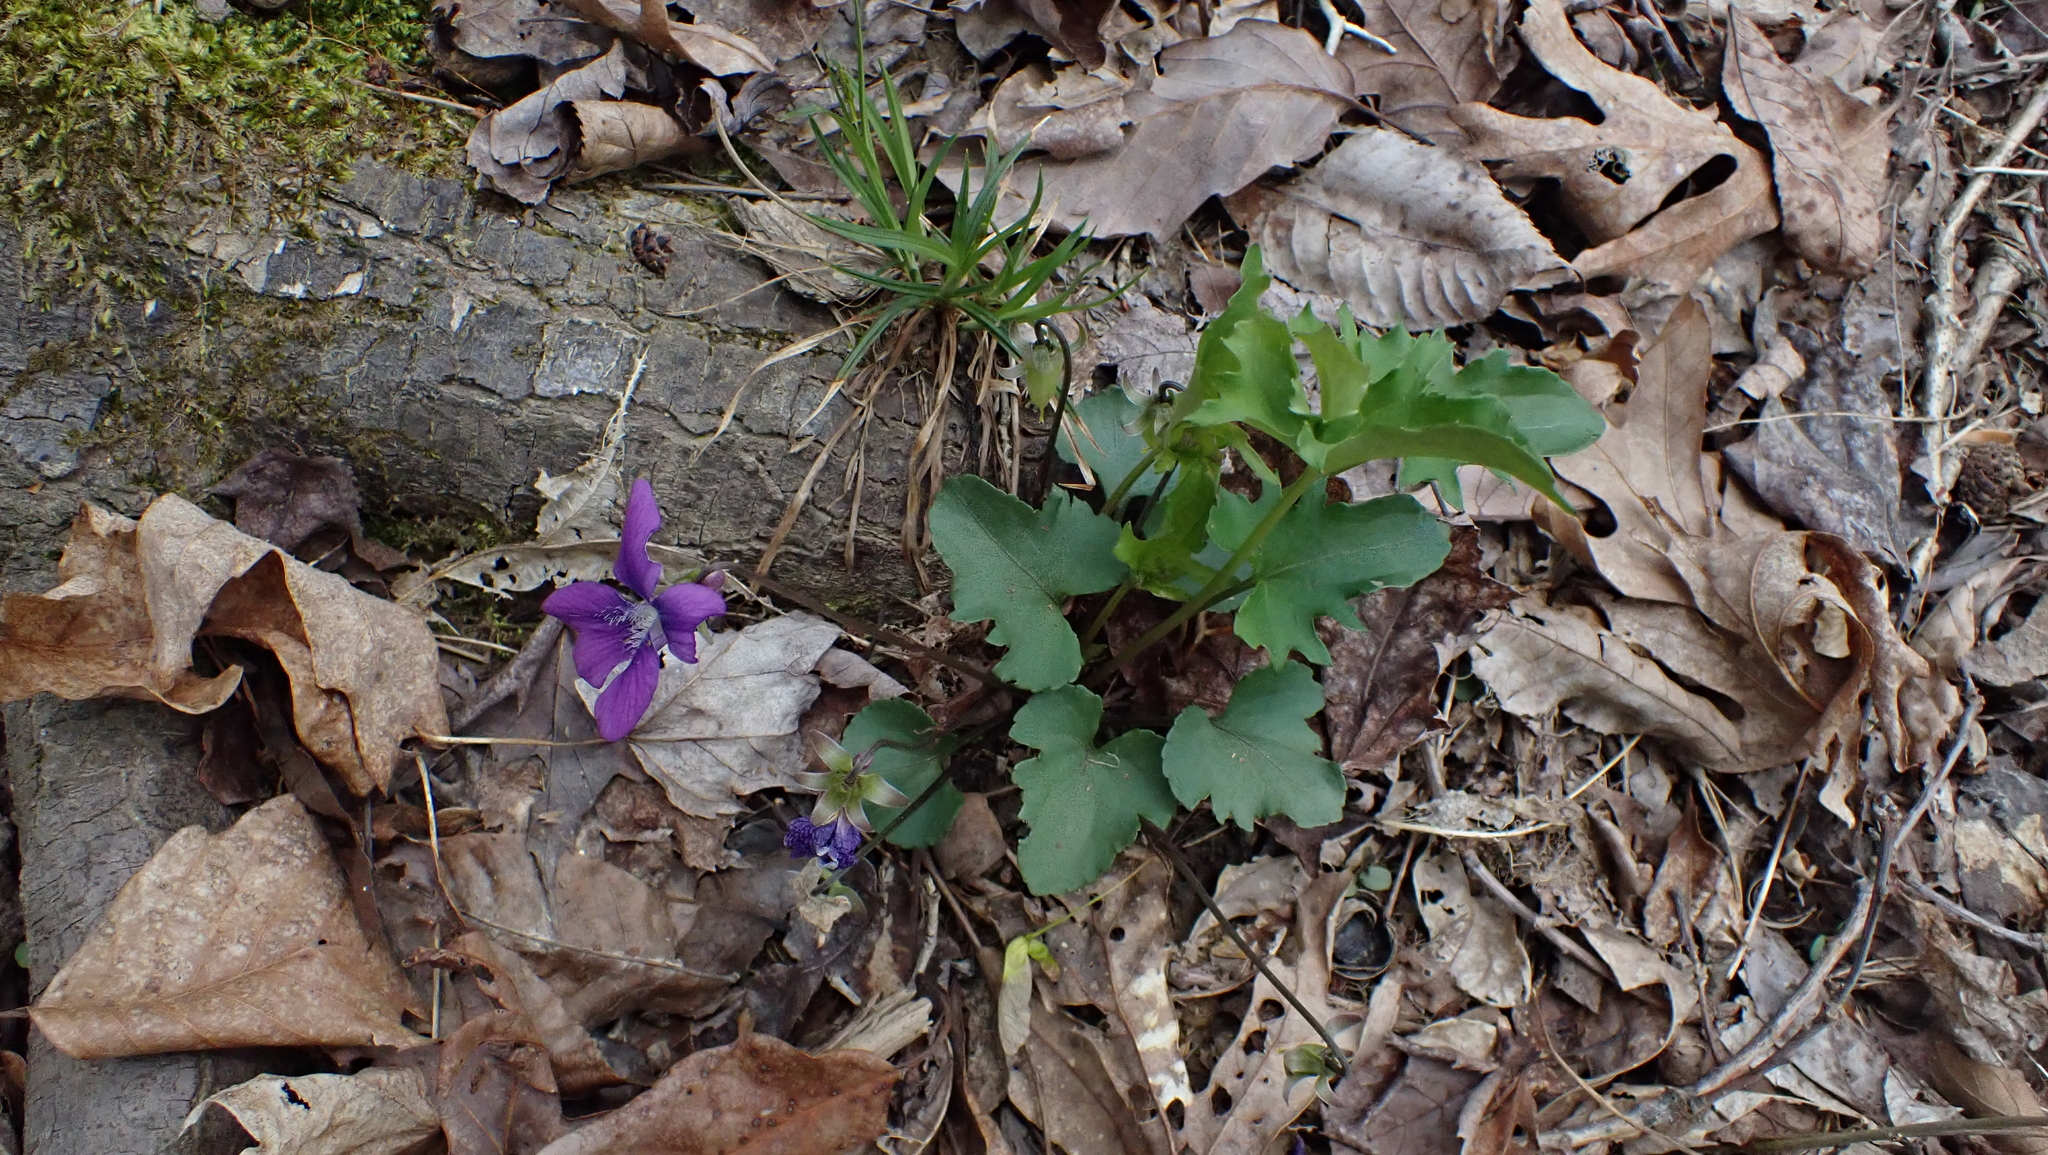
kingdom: Plantae
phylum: Tracheophyta
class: Magnoliopsida
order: Malpighiales
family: Violaceae
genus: Viola
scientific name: Viola palmata
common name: Early blue violet
